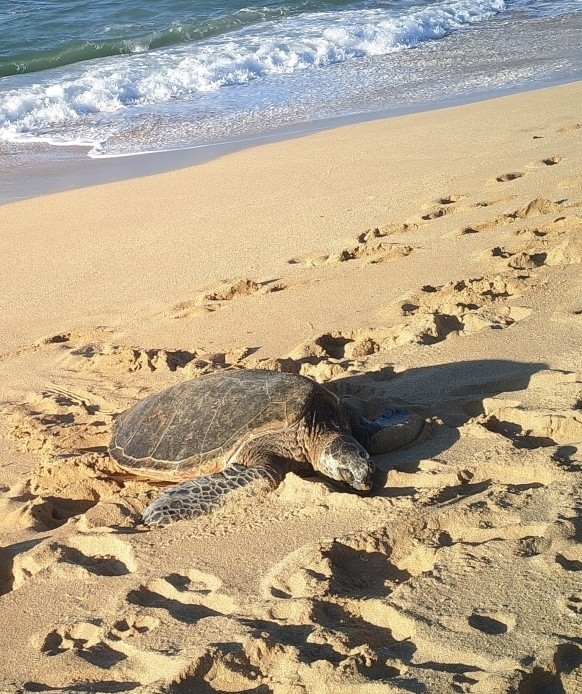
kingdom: Animalia
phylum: Chordata
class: Testudines
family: Cheloniidae
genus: Chelonia
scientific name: Chelonia mydas
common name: Green turtle
